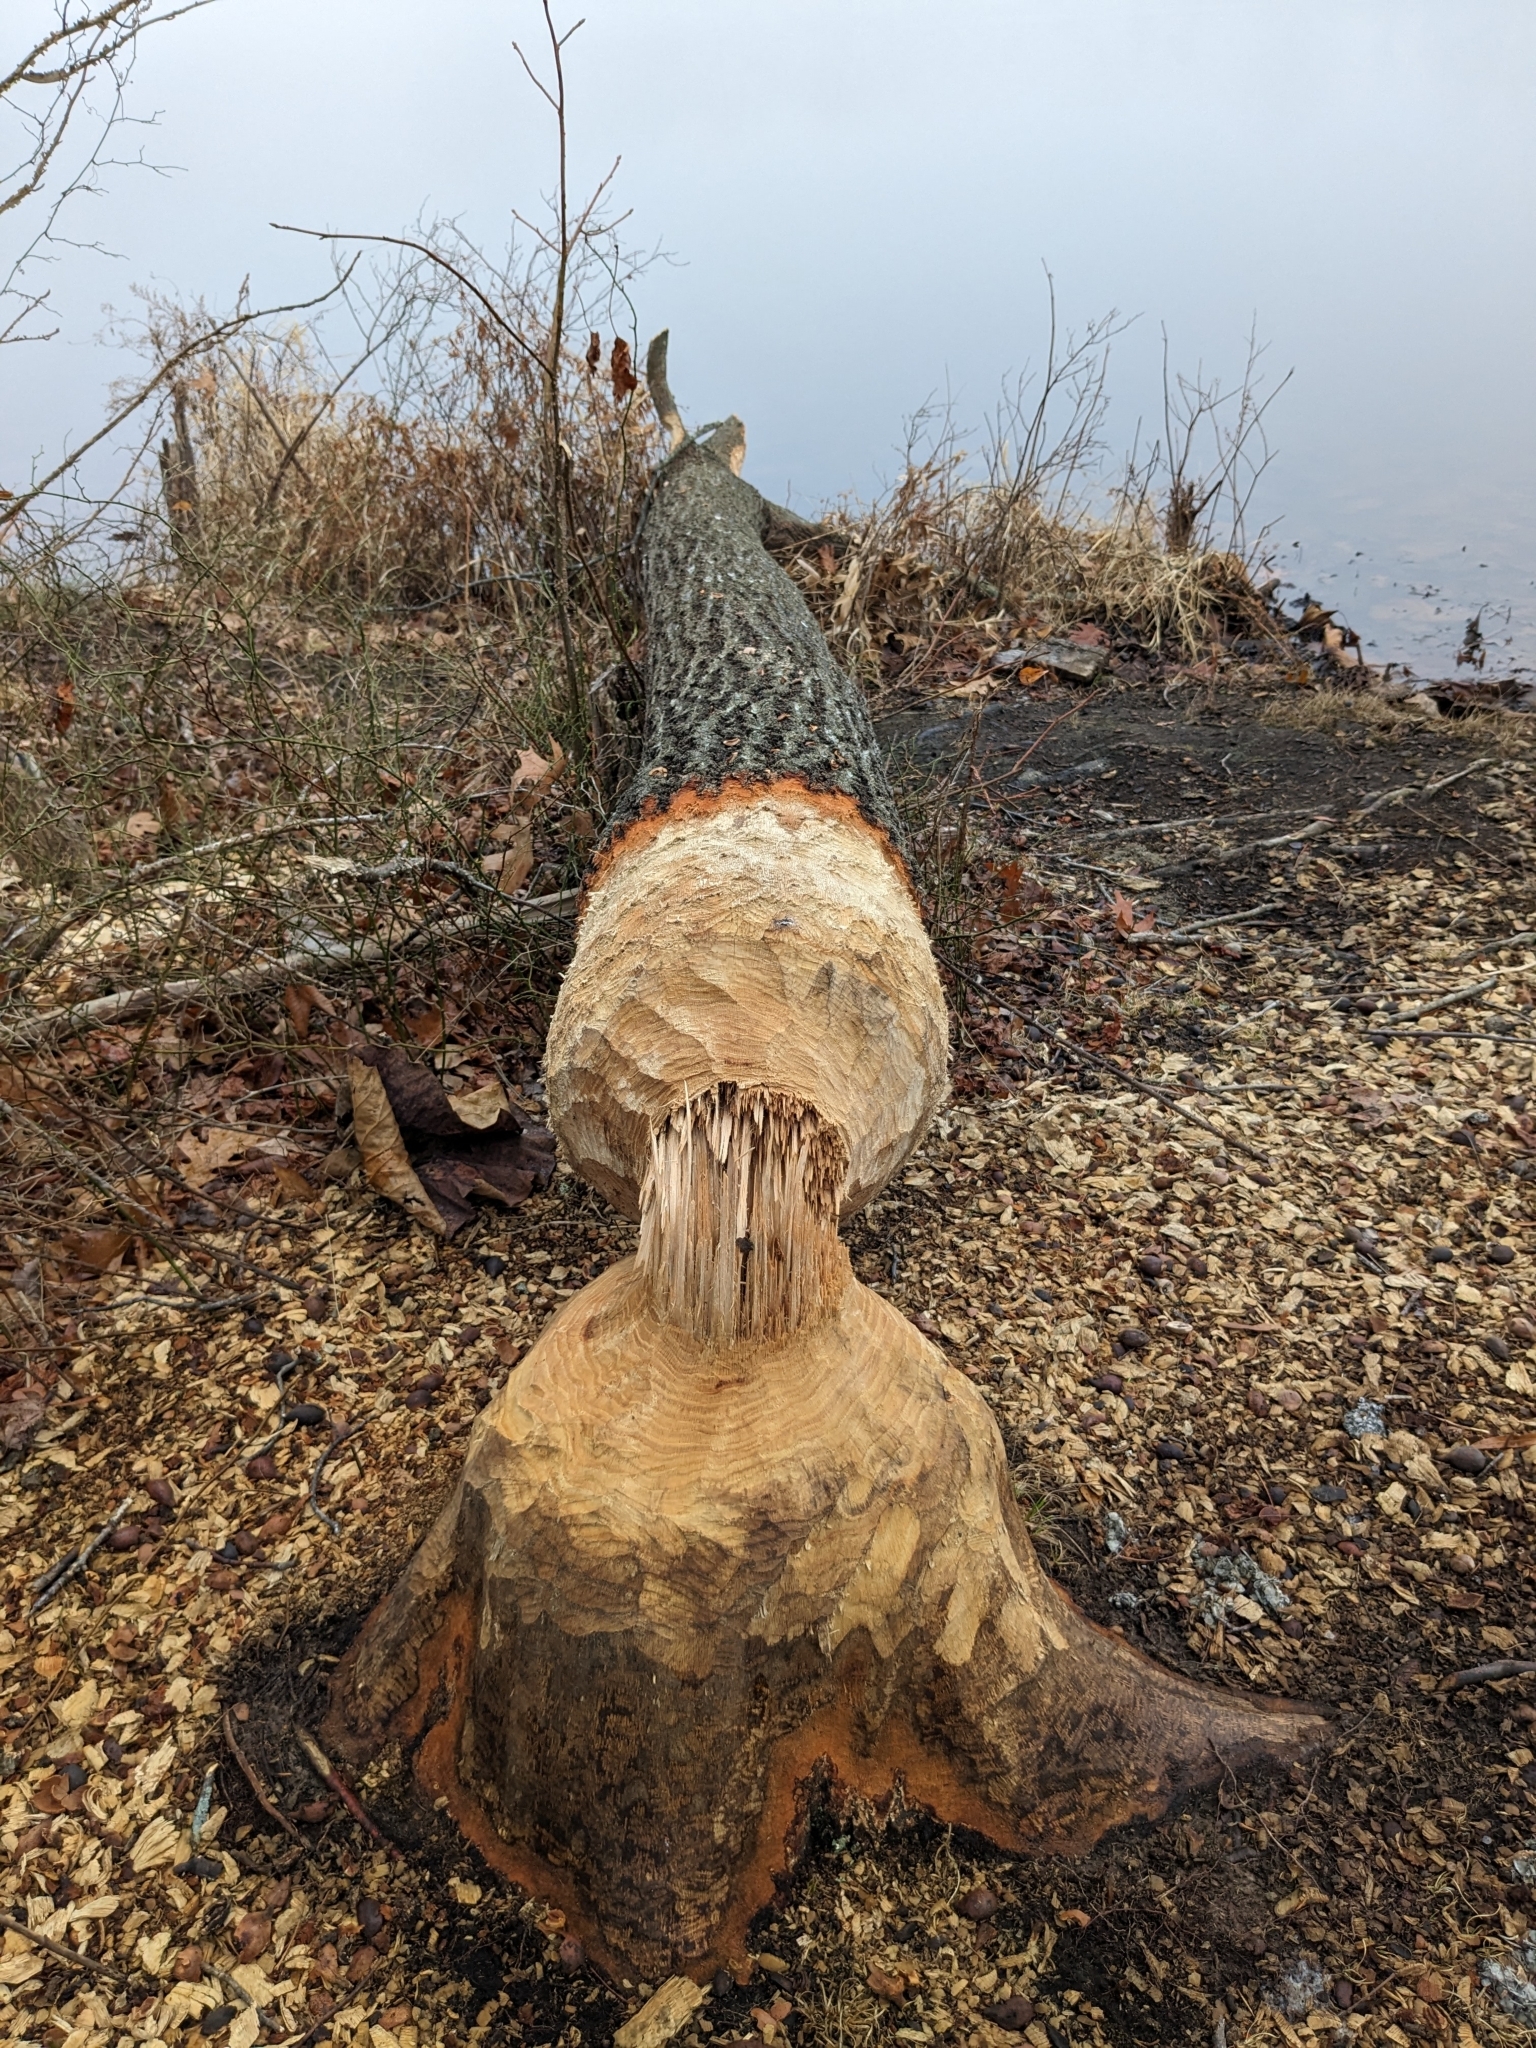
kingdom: Animalia
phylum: Chordata
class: Mammalia
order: Rodentia
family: Castoridae
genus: Castor
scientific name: Castor canadensis
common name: American beaver
